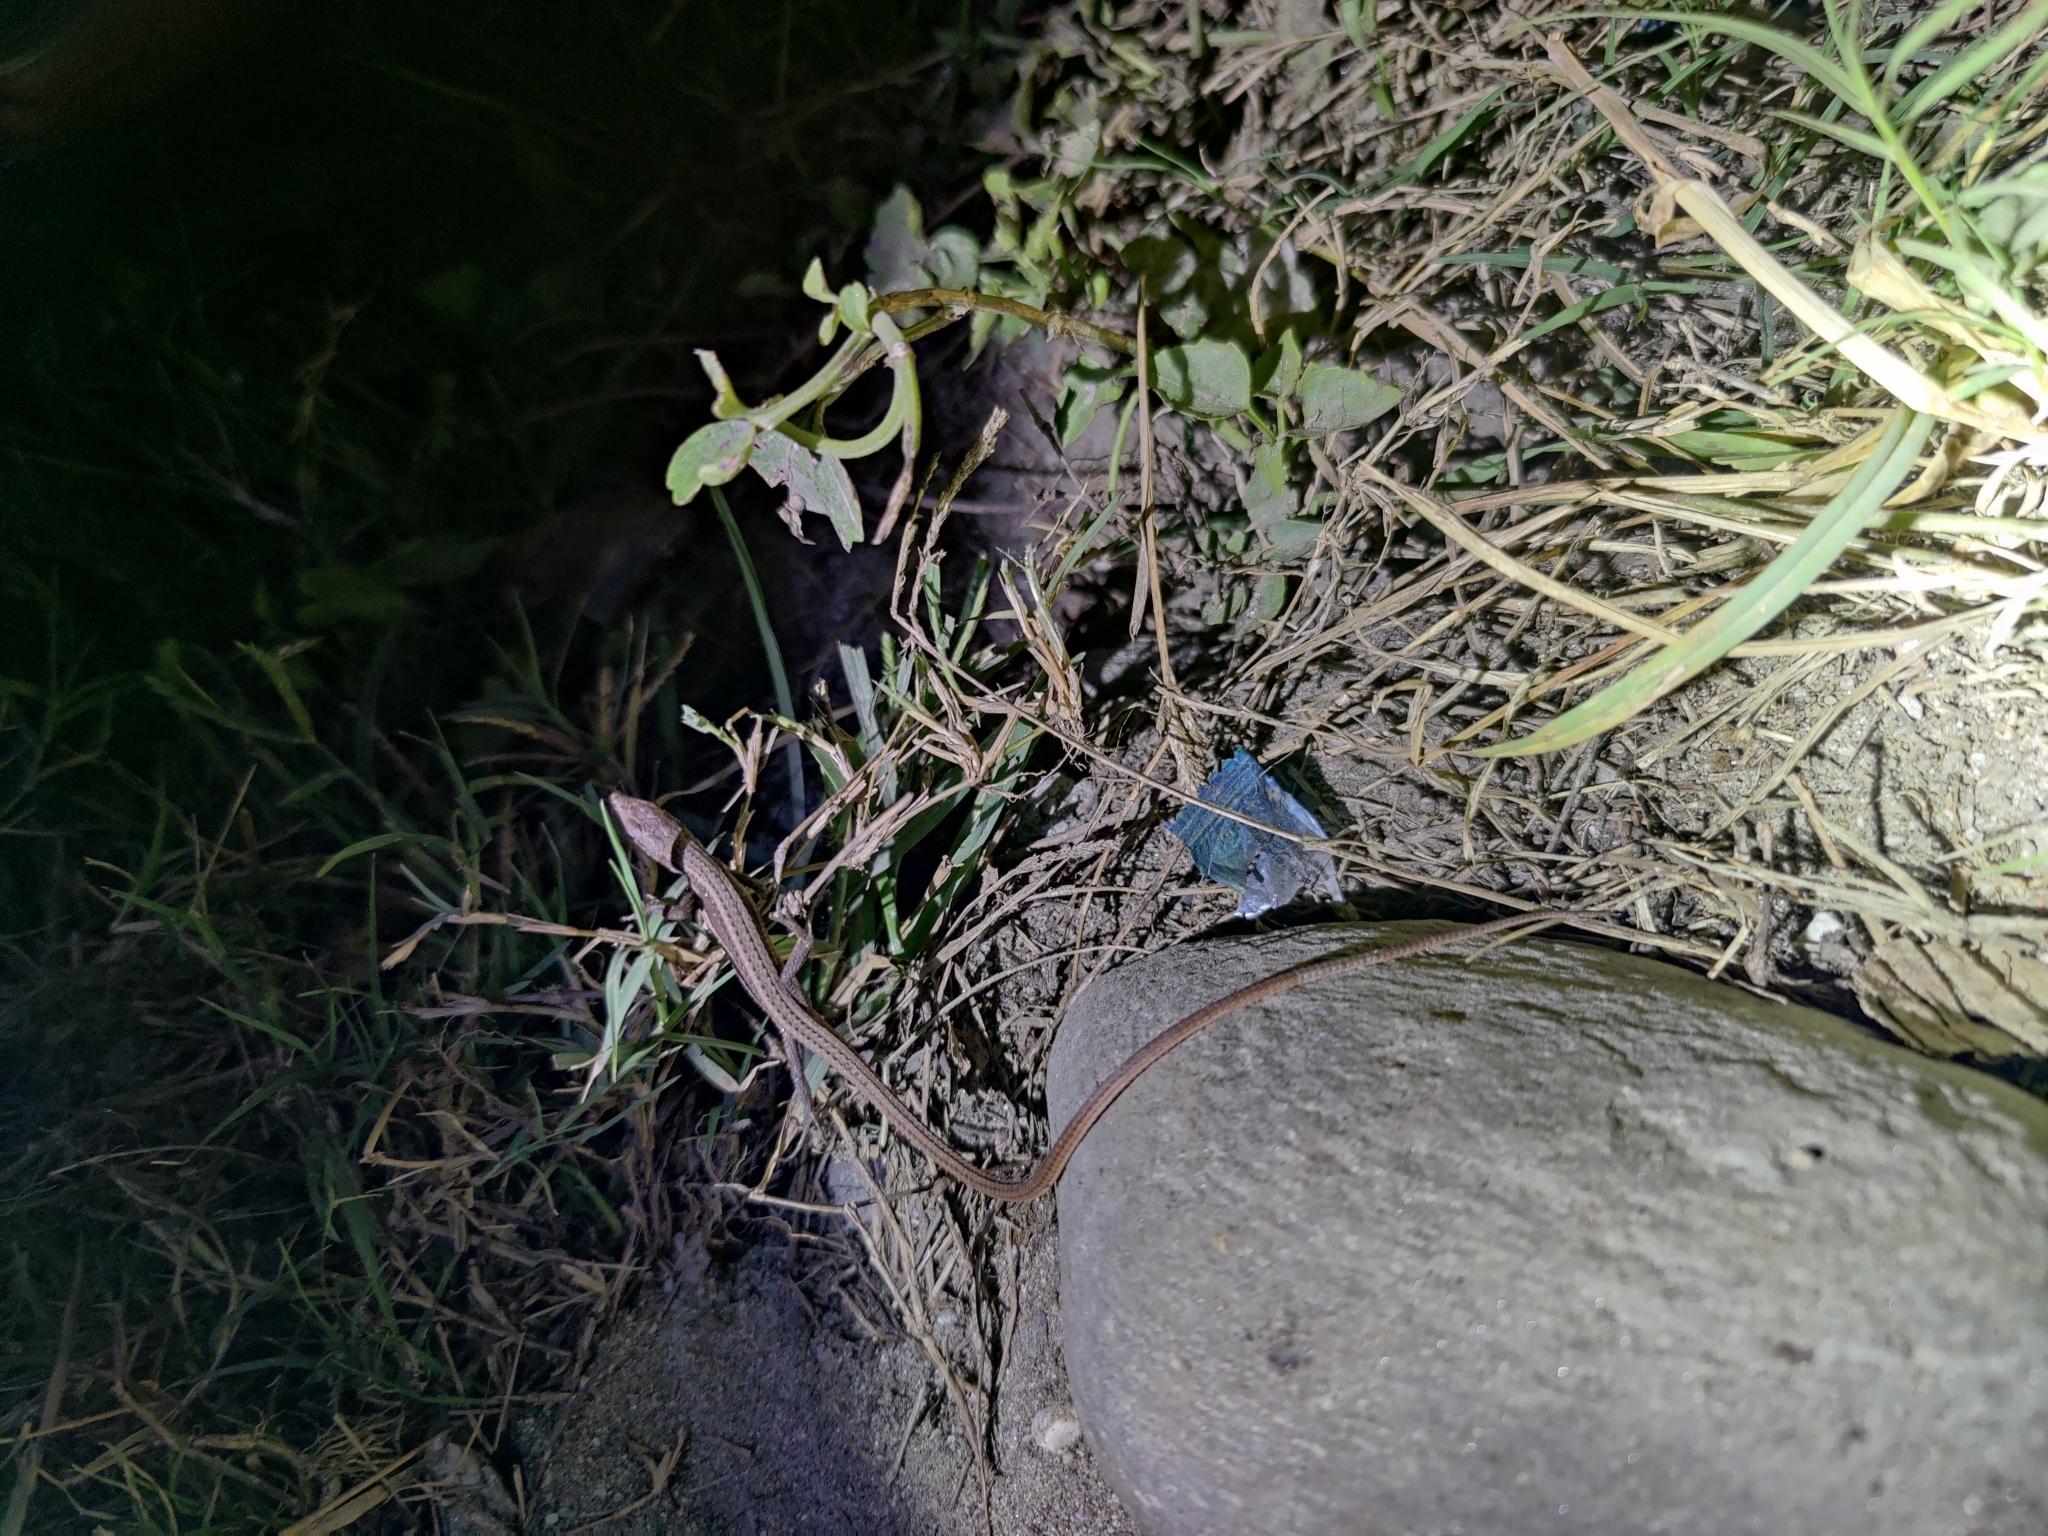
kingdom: Animalia
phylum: Chordata
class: Squamata
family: Lacertidae
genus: Takydromus
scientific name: Takydromus sexlineatus
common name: Asian grass lizard
